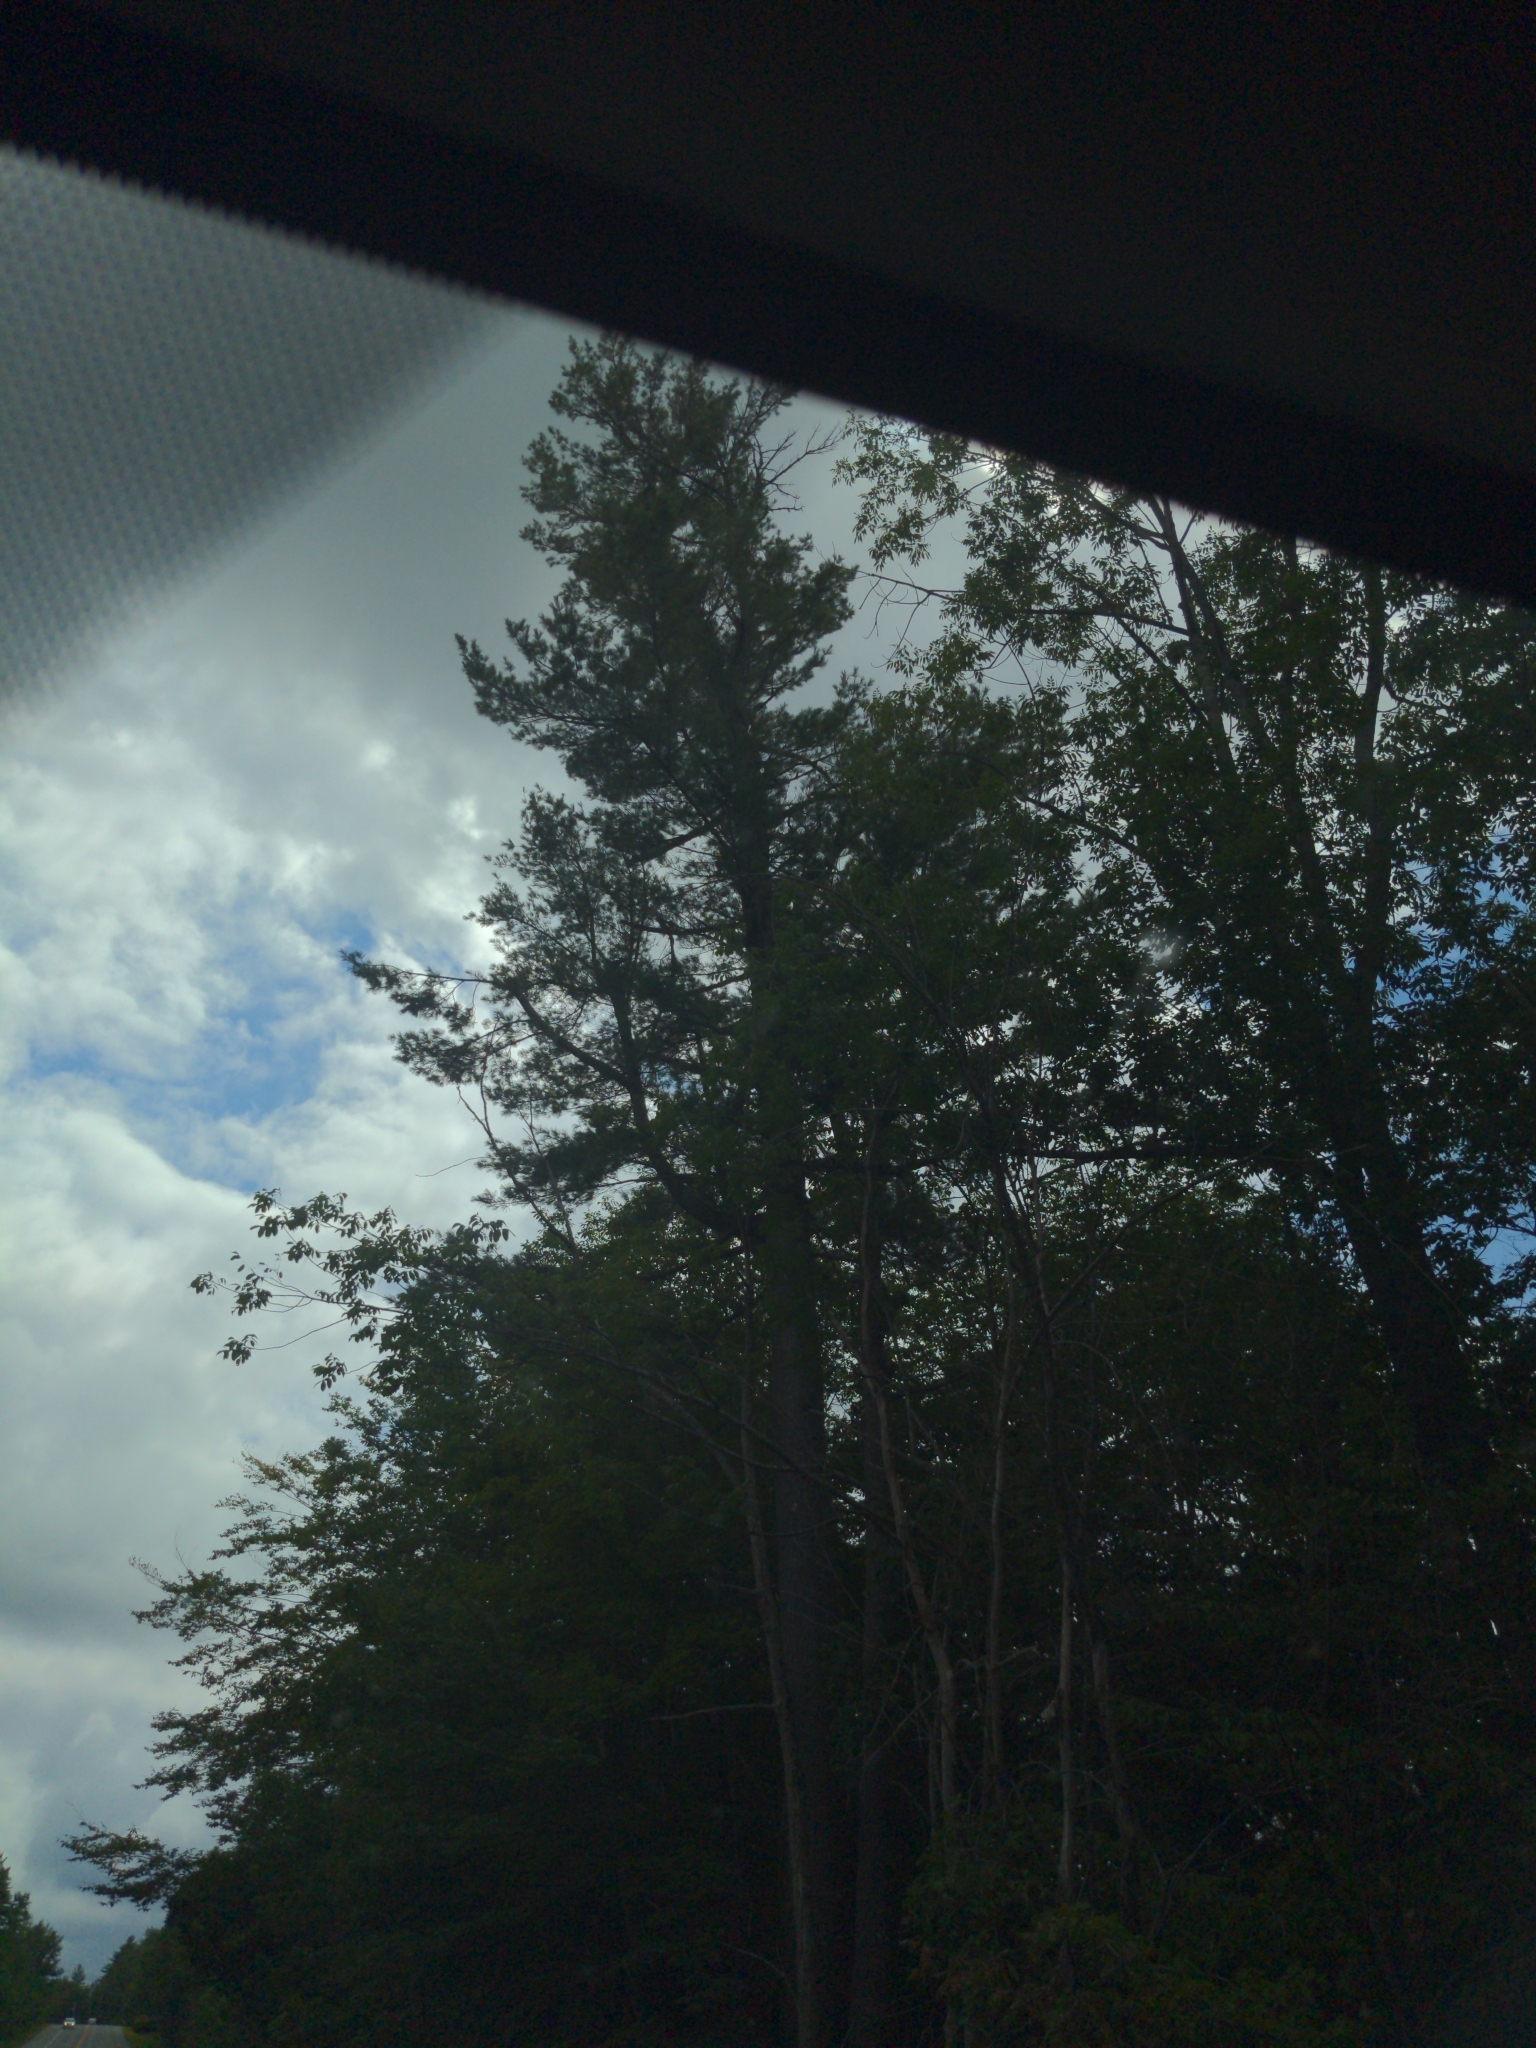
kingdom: Plantae
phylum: Tracheophyta
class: Pinopsida
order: Pinales
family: Pinaceae
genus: Pinus
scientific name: Pinus strobus
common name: Weymouth pine
